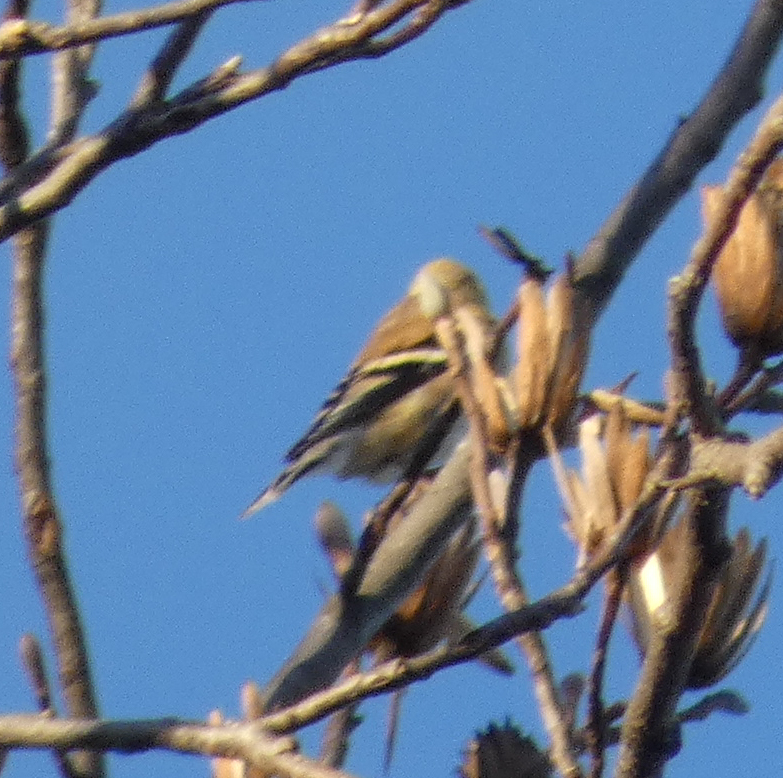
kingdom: Animalia
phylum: Chordata
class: Aves
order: Passeriformes
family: Fringillidae
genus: Spinus
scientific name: Spinus tristis
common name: American goldfinch
